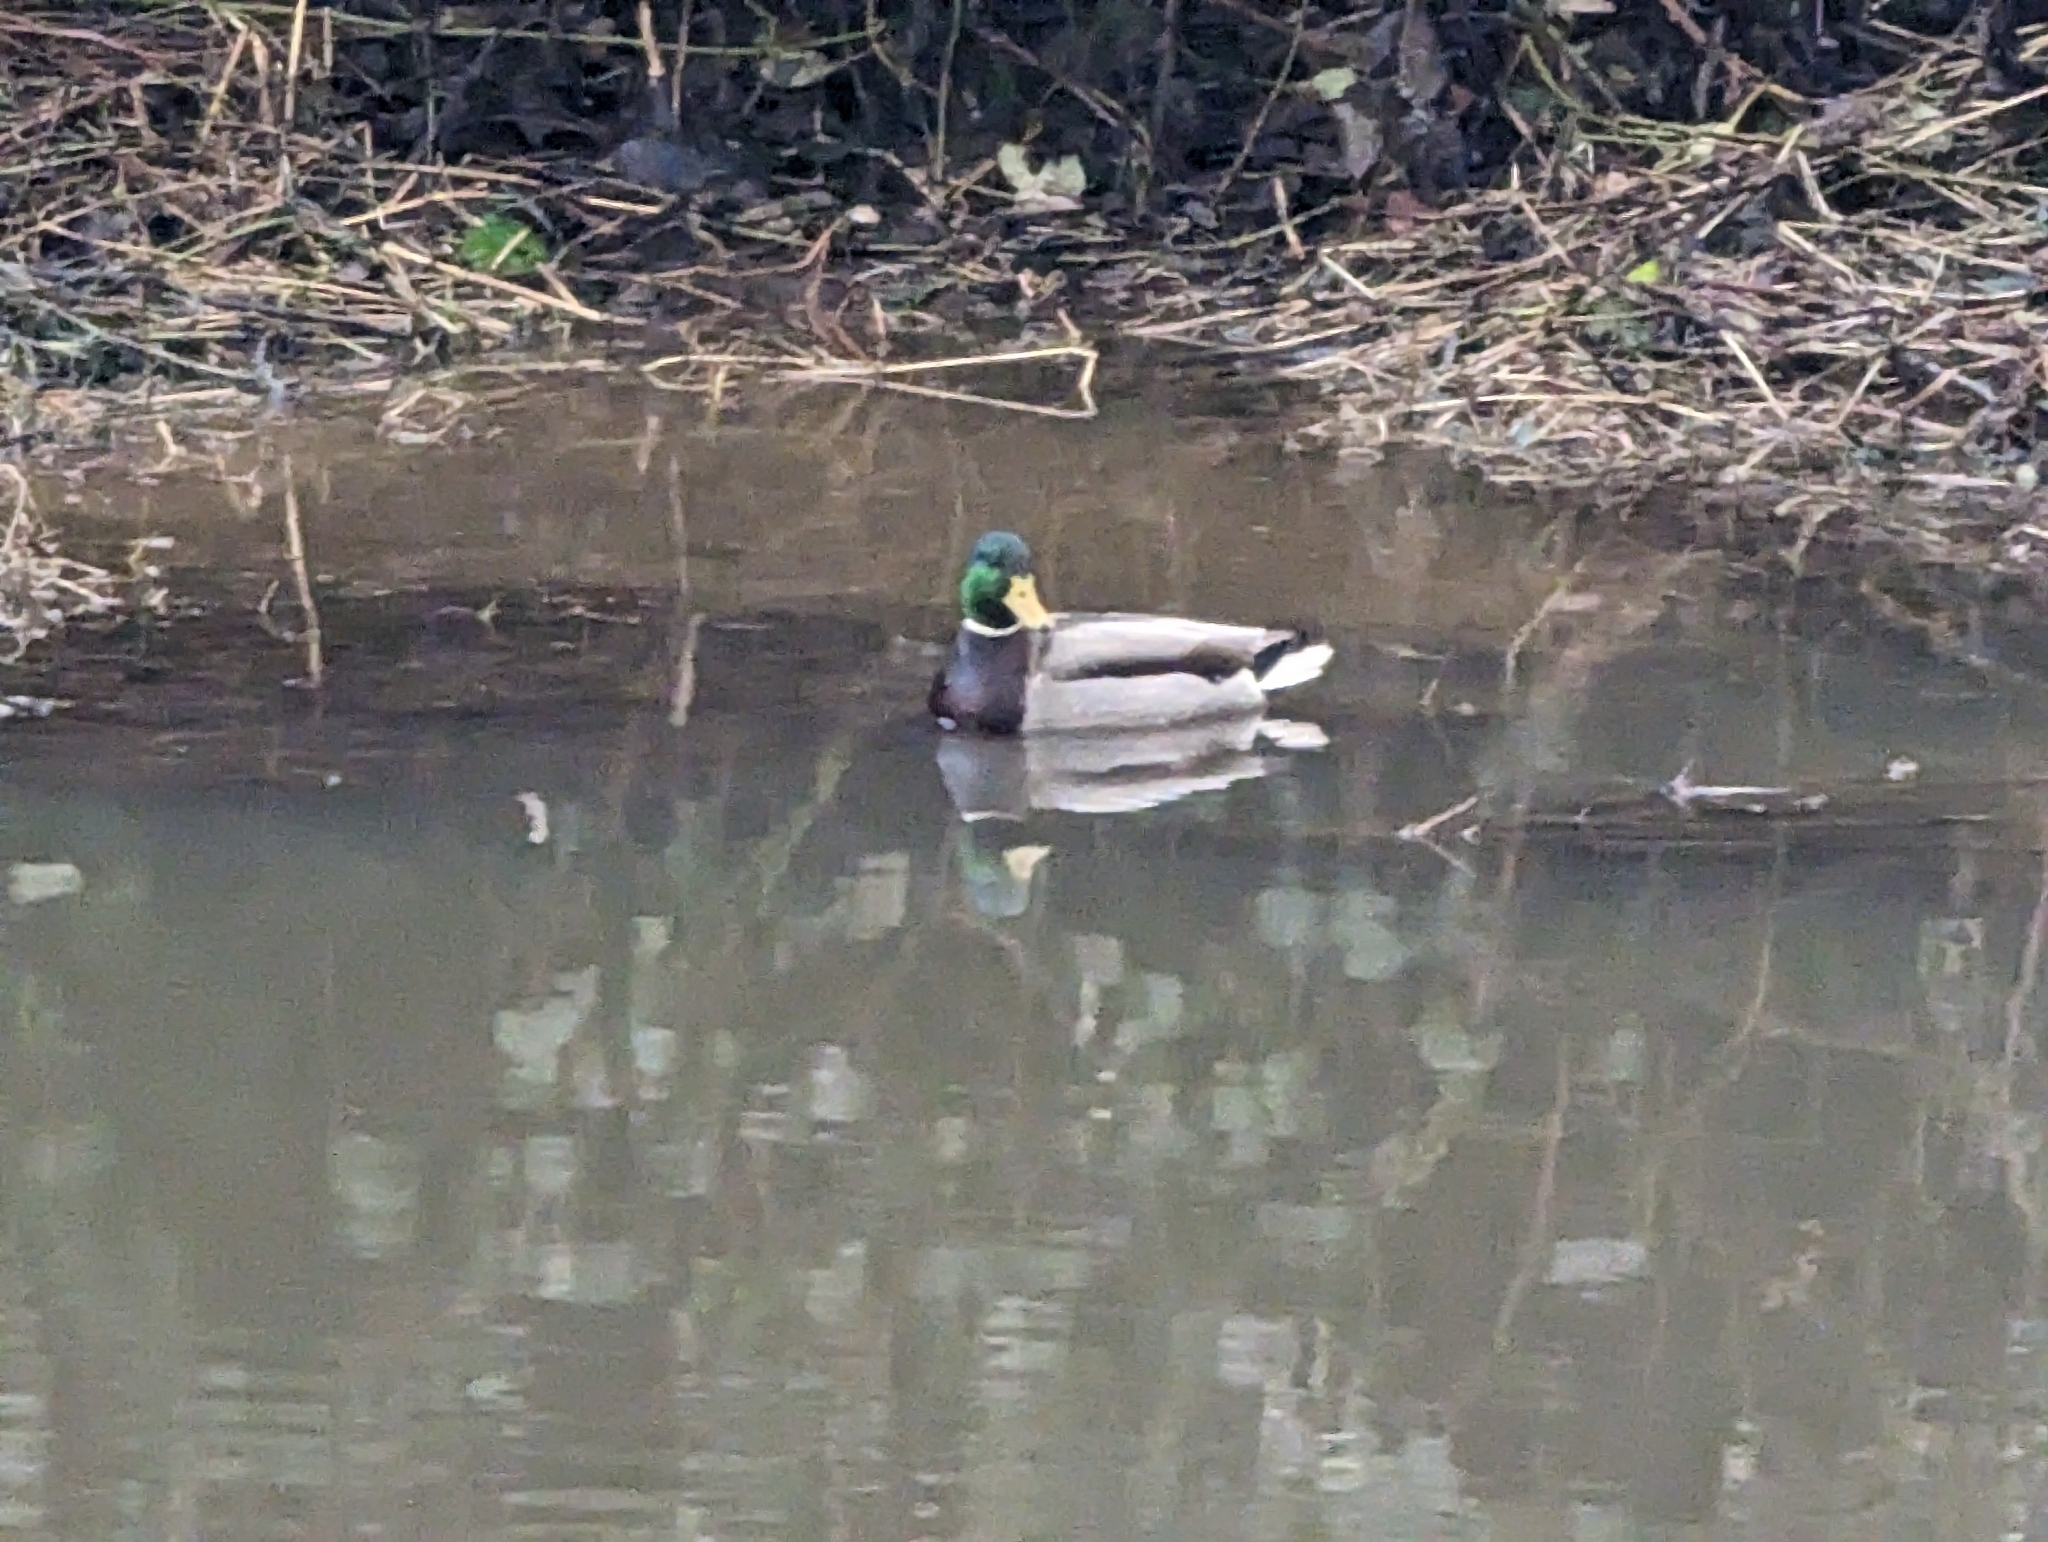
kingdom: Animalia
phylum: Chordata
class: Aves
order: Anseriformes
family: Anatidae
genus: Anas
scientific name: Anas platyrhynchos
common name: Mallard
